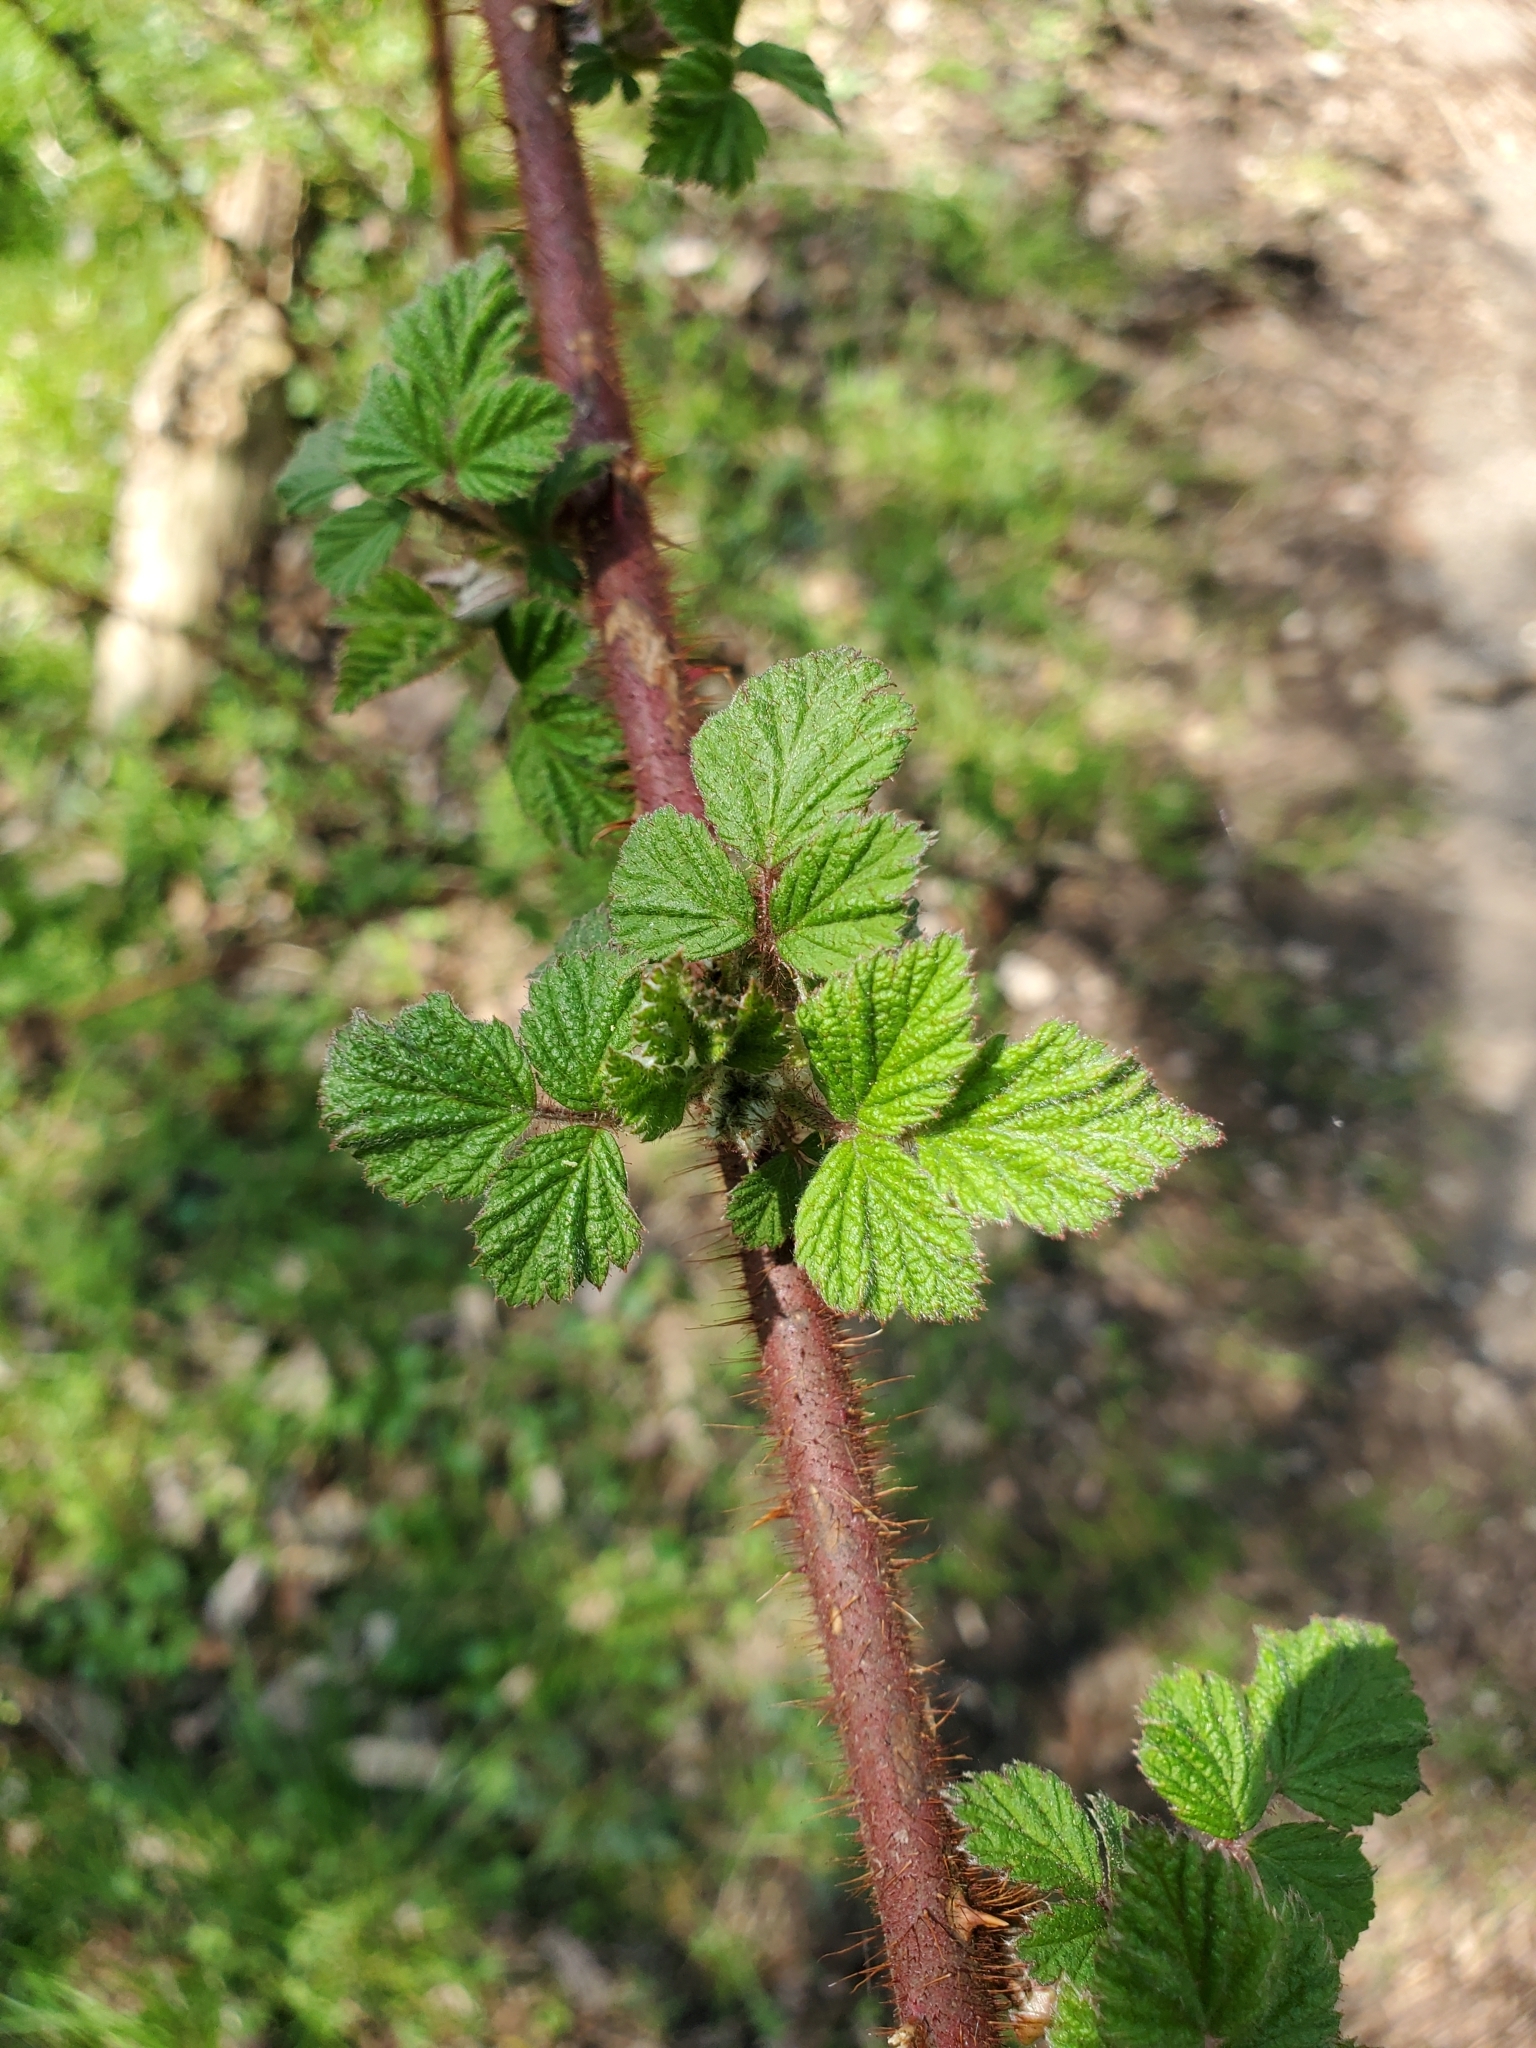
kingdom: Plantae
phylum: Tracheophyta
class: Magnoliopsida
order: Rosales
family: Rosaceae
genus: Rubus
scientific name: Rubus phoenicolasius
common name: Japanese wineberry
